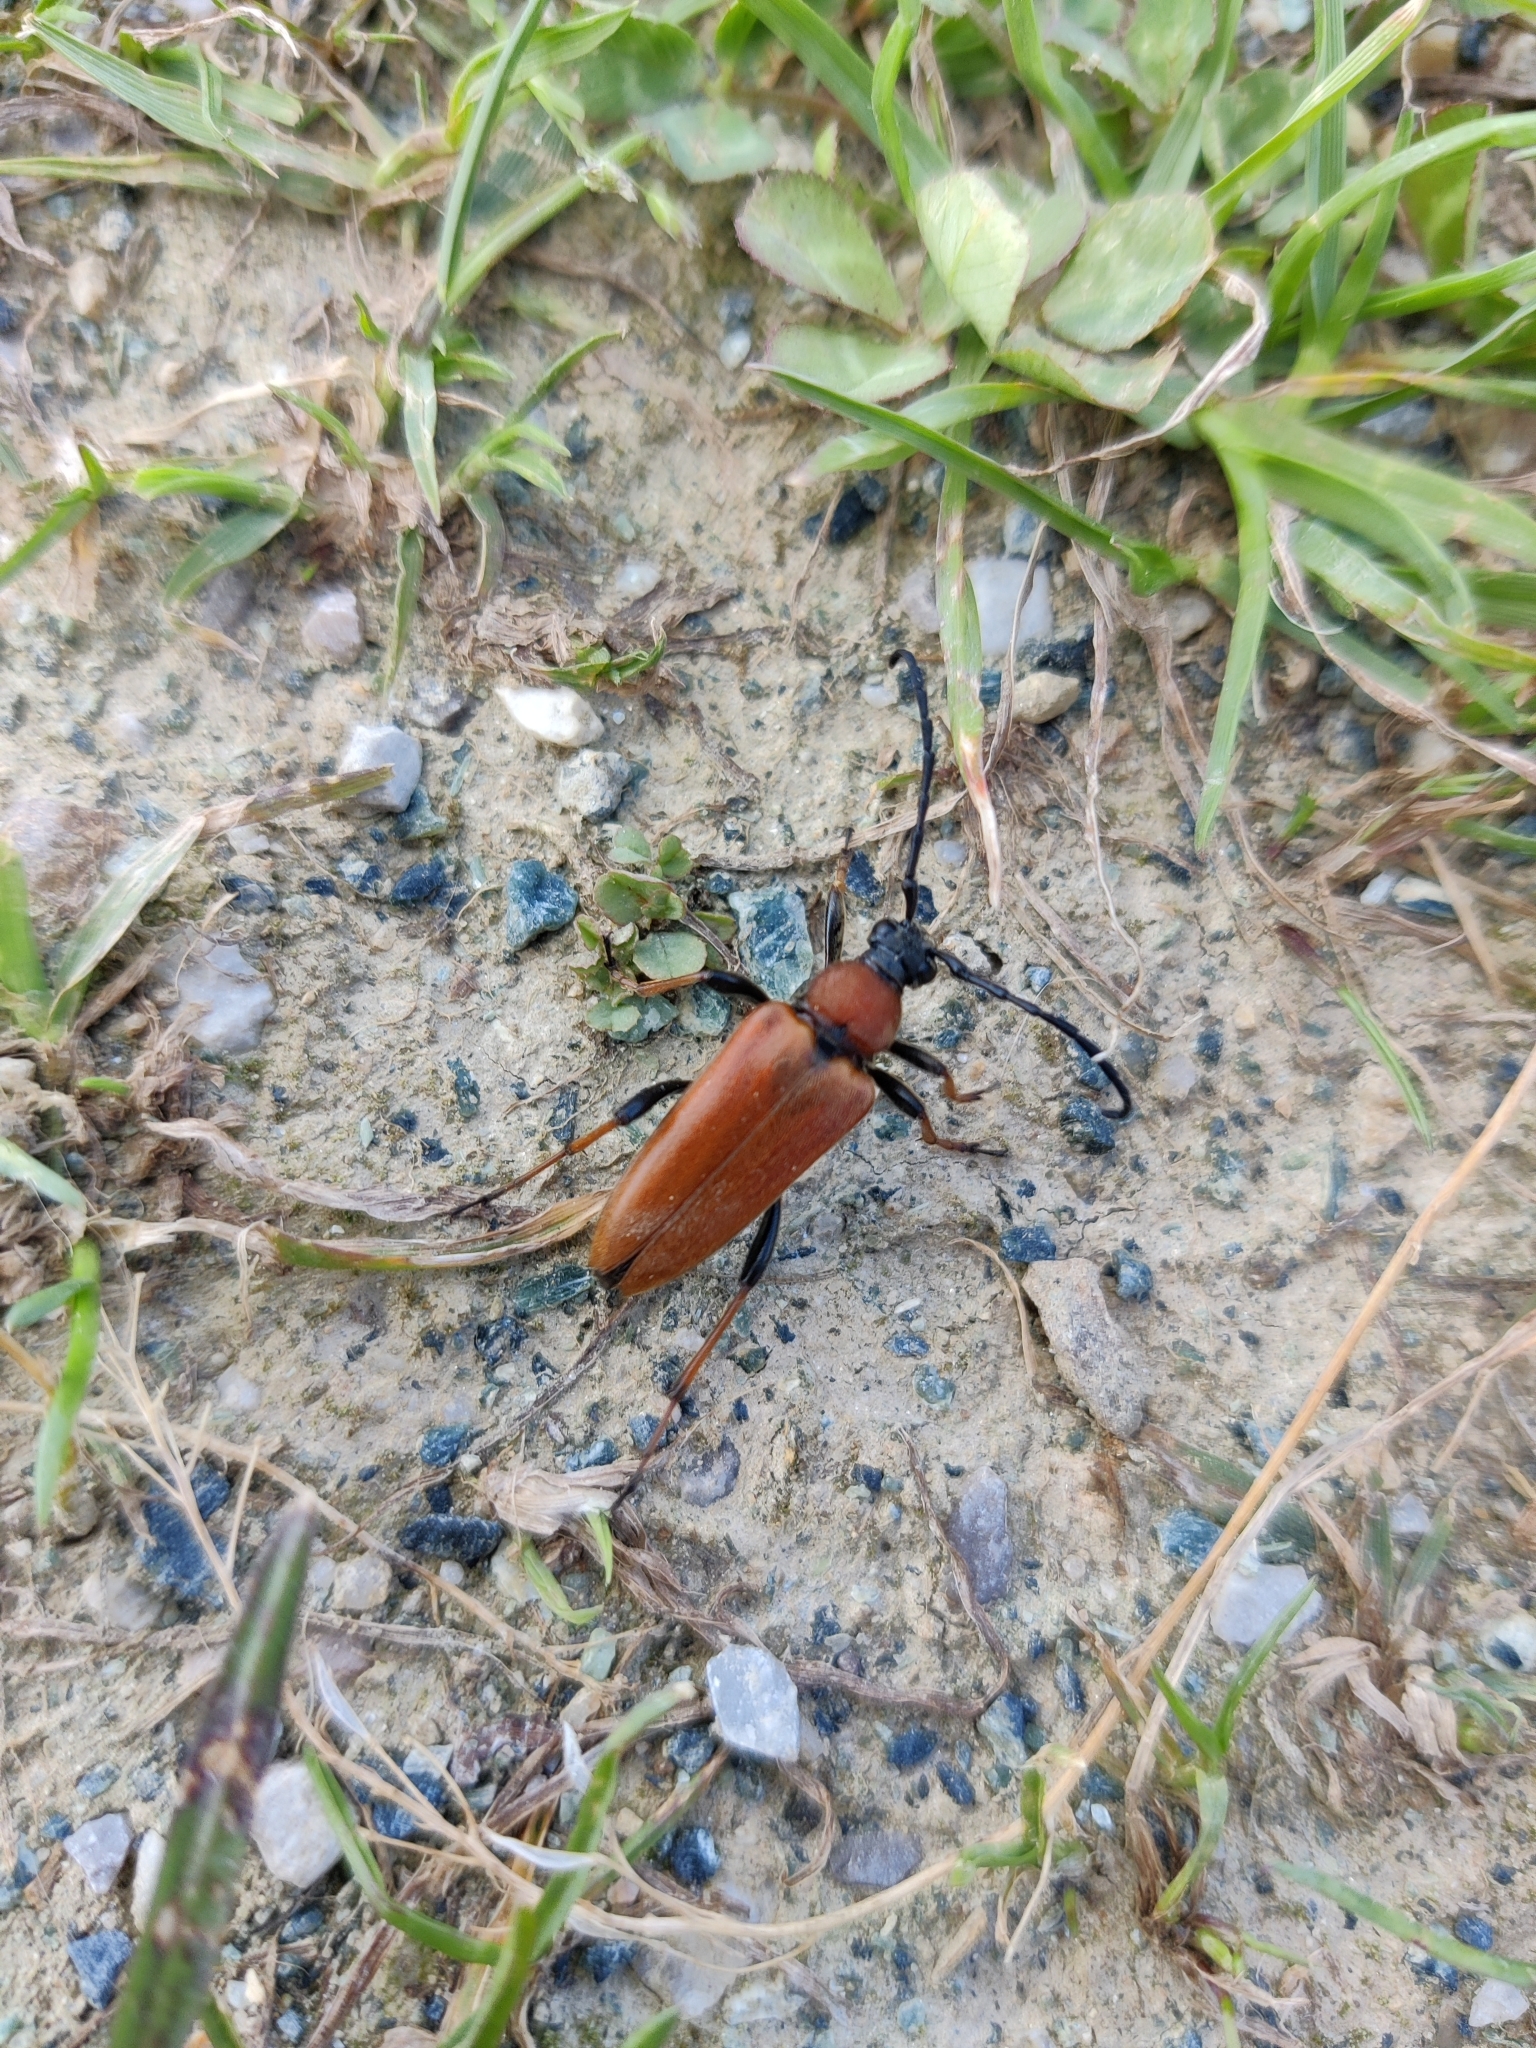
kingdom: Animalia
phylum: Arthropoda
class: Insecta
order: Coleoptera
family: Cerambycidae
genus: Stictoleptura
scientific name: Stictoleptura rubra
